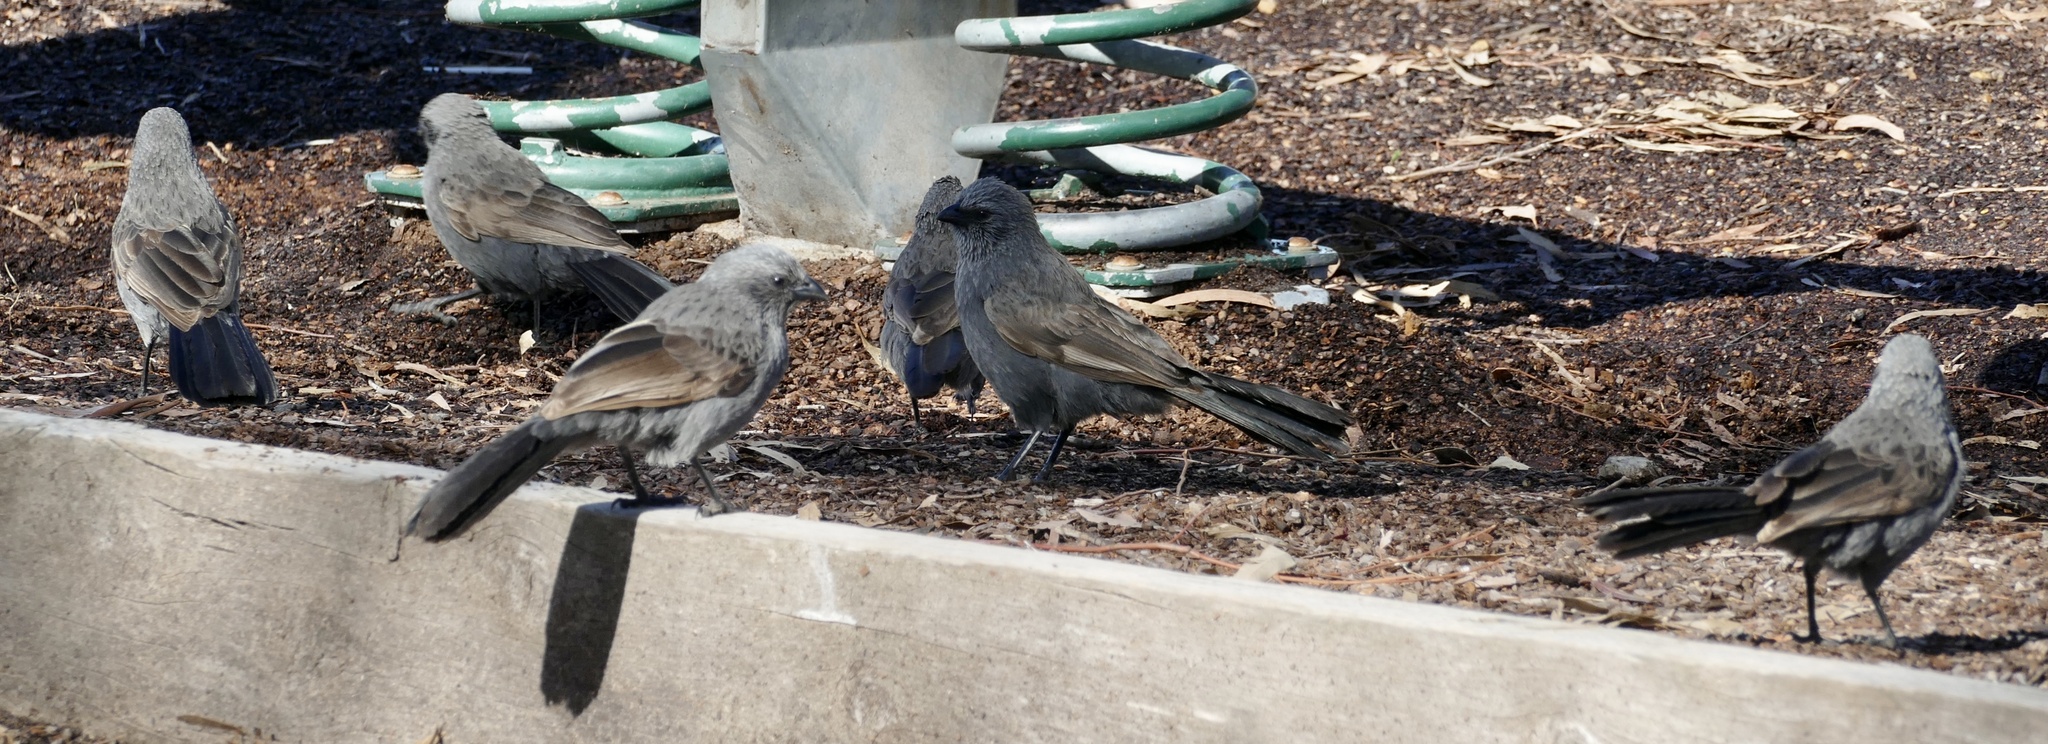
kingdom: Animalia
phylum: Chordata
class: Aves
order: Passeriformes
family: Corcoracidae
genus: Struthidea
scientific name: Struthidea cinerea
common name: Apostlebird
